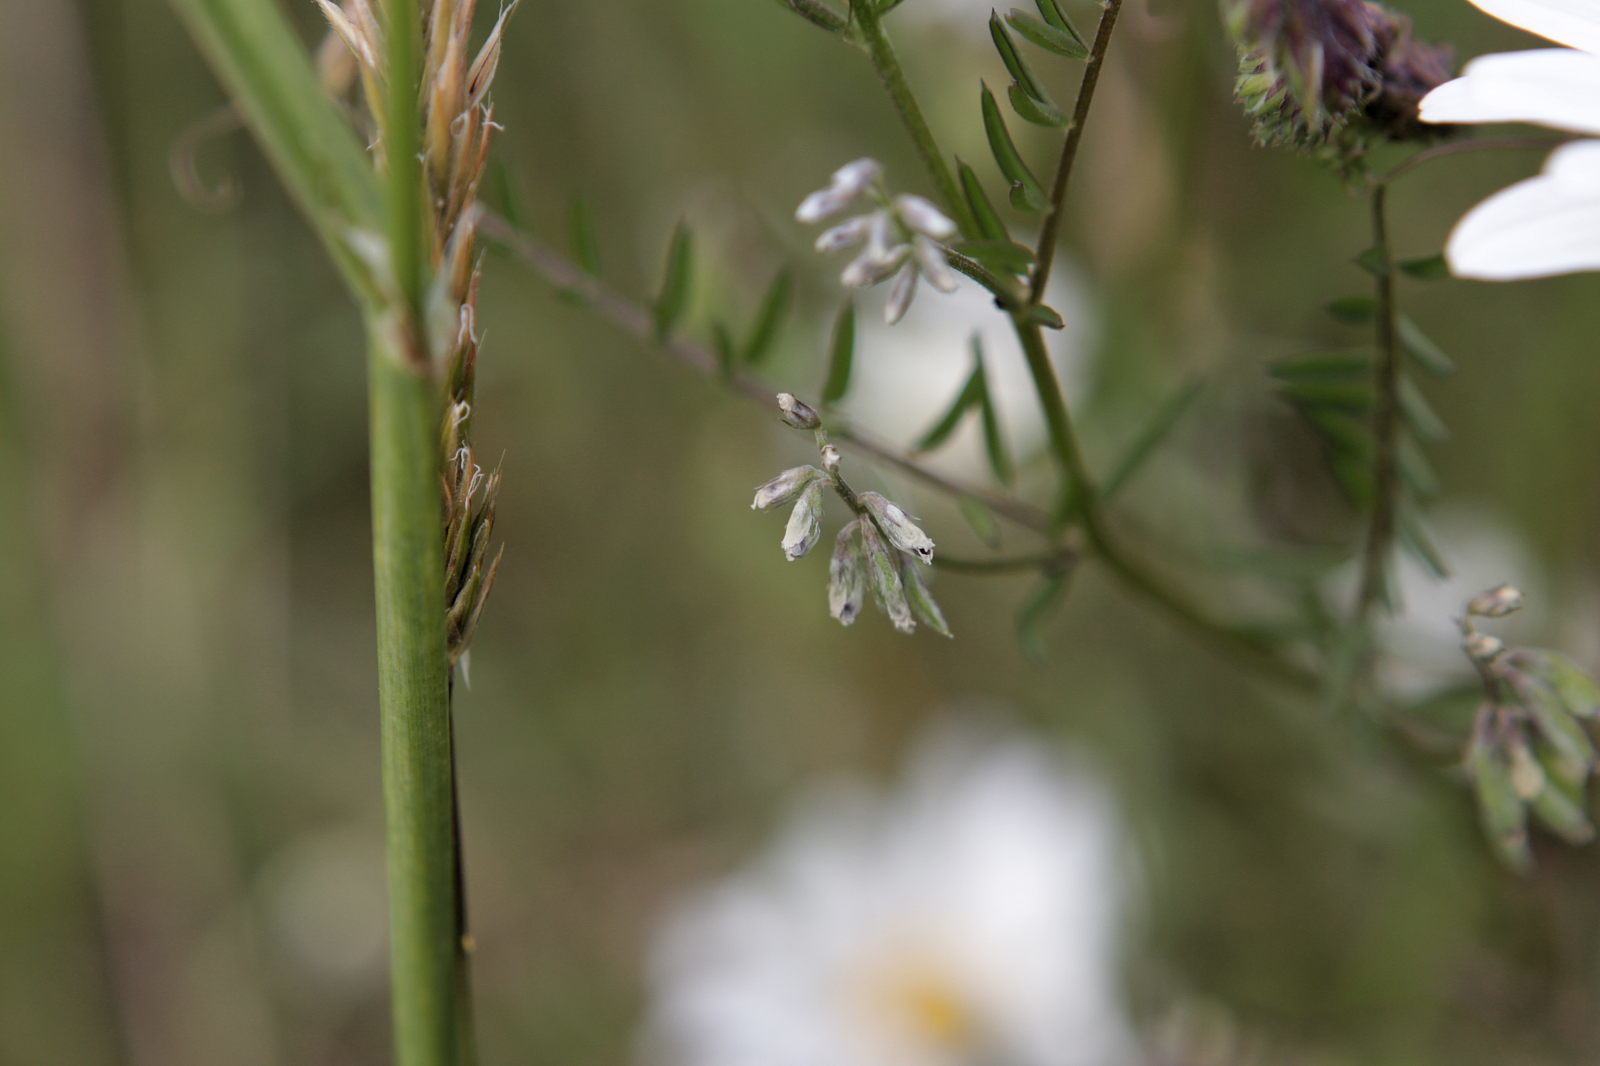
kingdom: Plantae
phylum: Tracheophyta
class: Magnoliopsida
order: Fabales
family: Fabaceae
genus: Vicia
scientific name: Vicia hirsuta
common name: Tiny vetch
